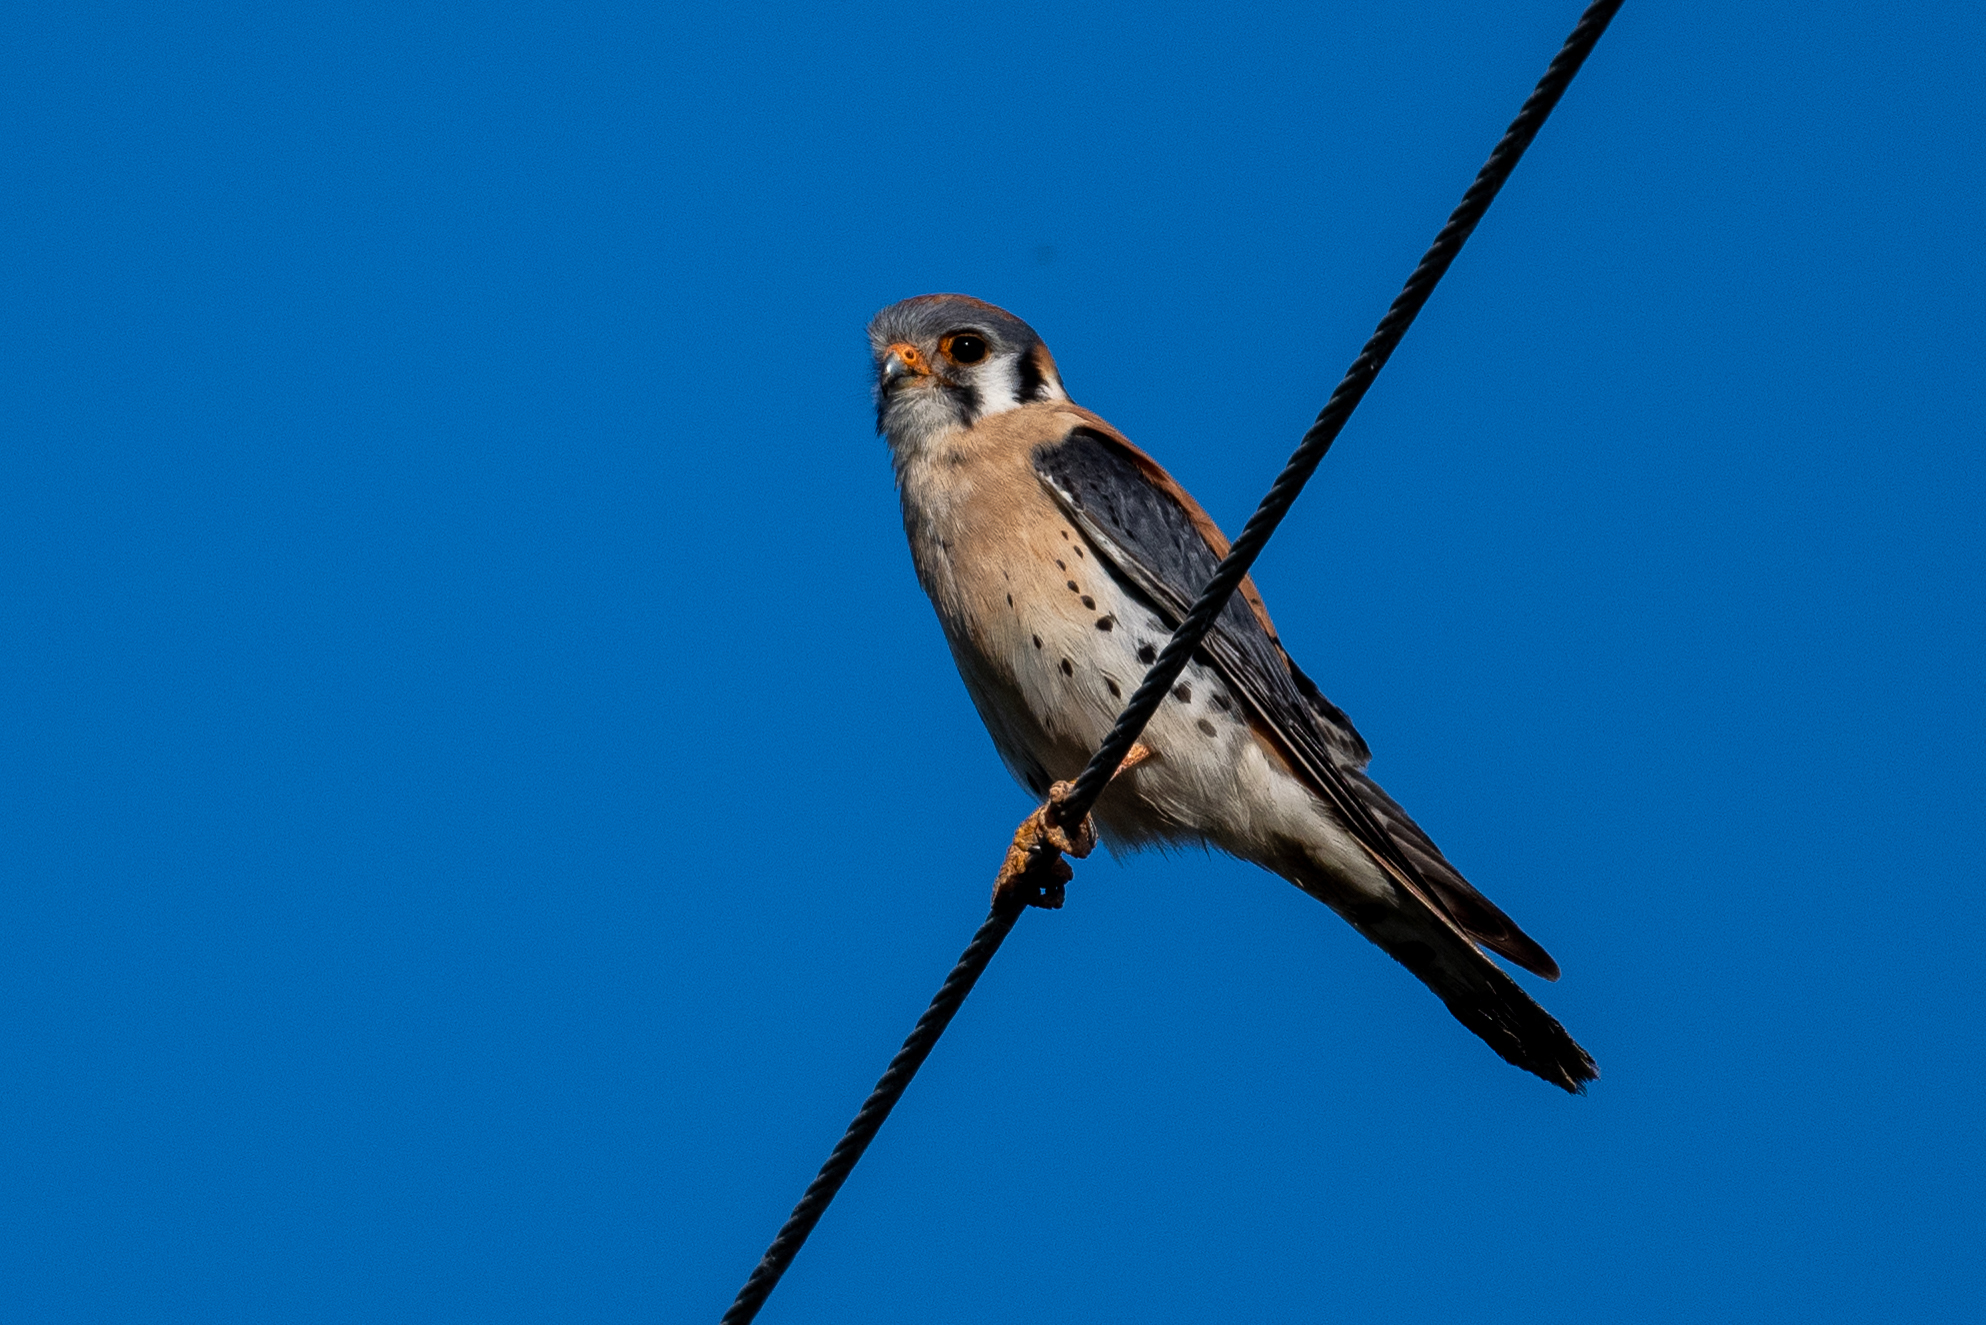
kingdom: Animalia
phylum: Chordata
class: Aves
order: Falconiformes
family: Falconidae
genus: Falco
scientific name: Falco sparverius
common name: American kestrel
